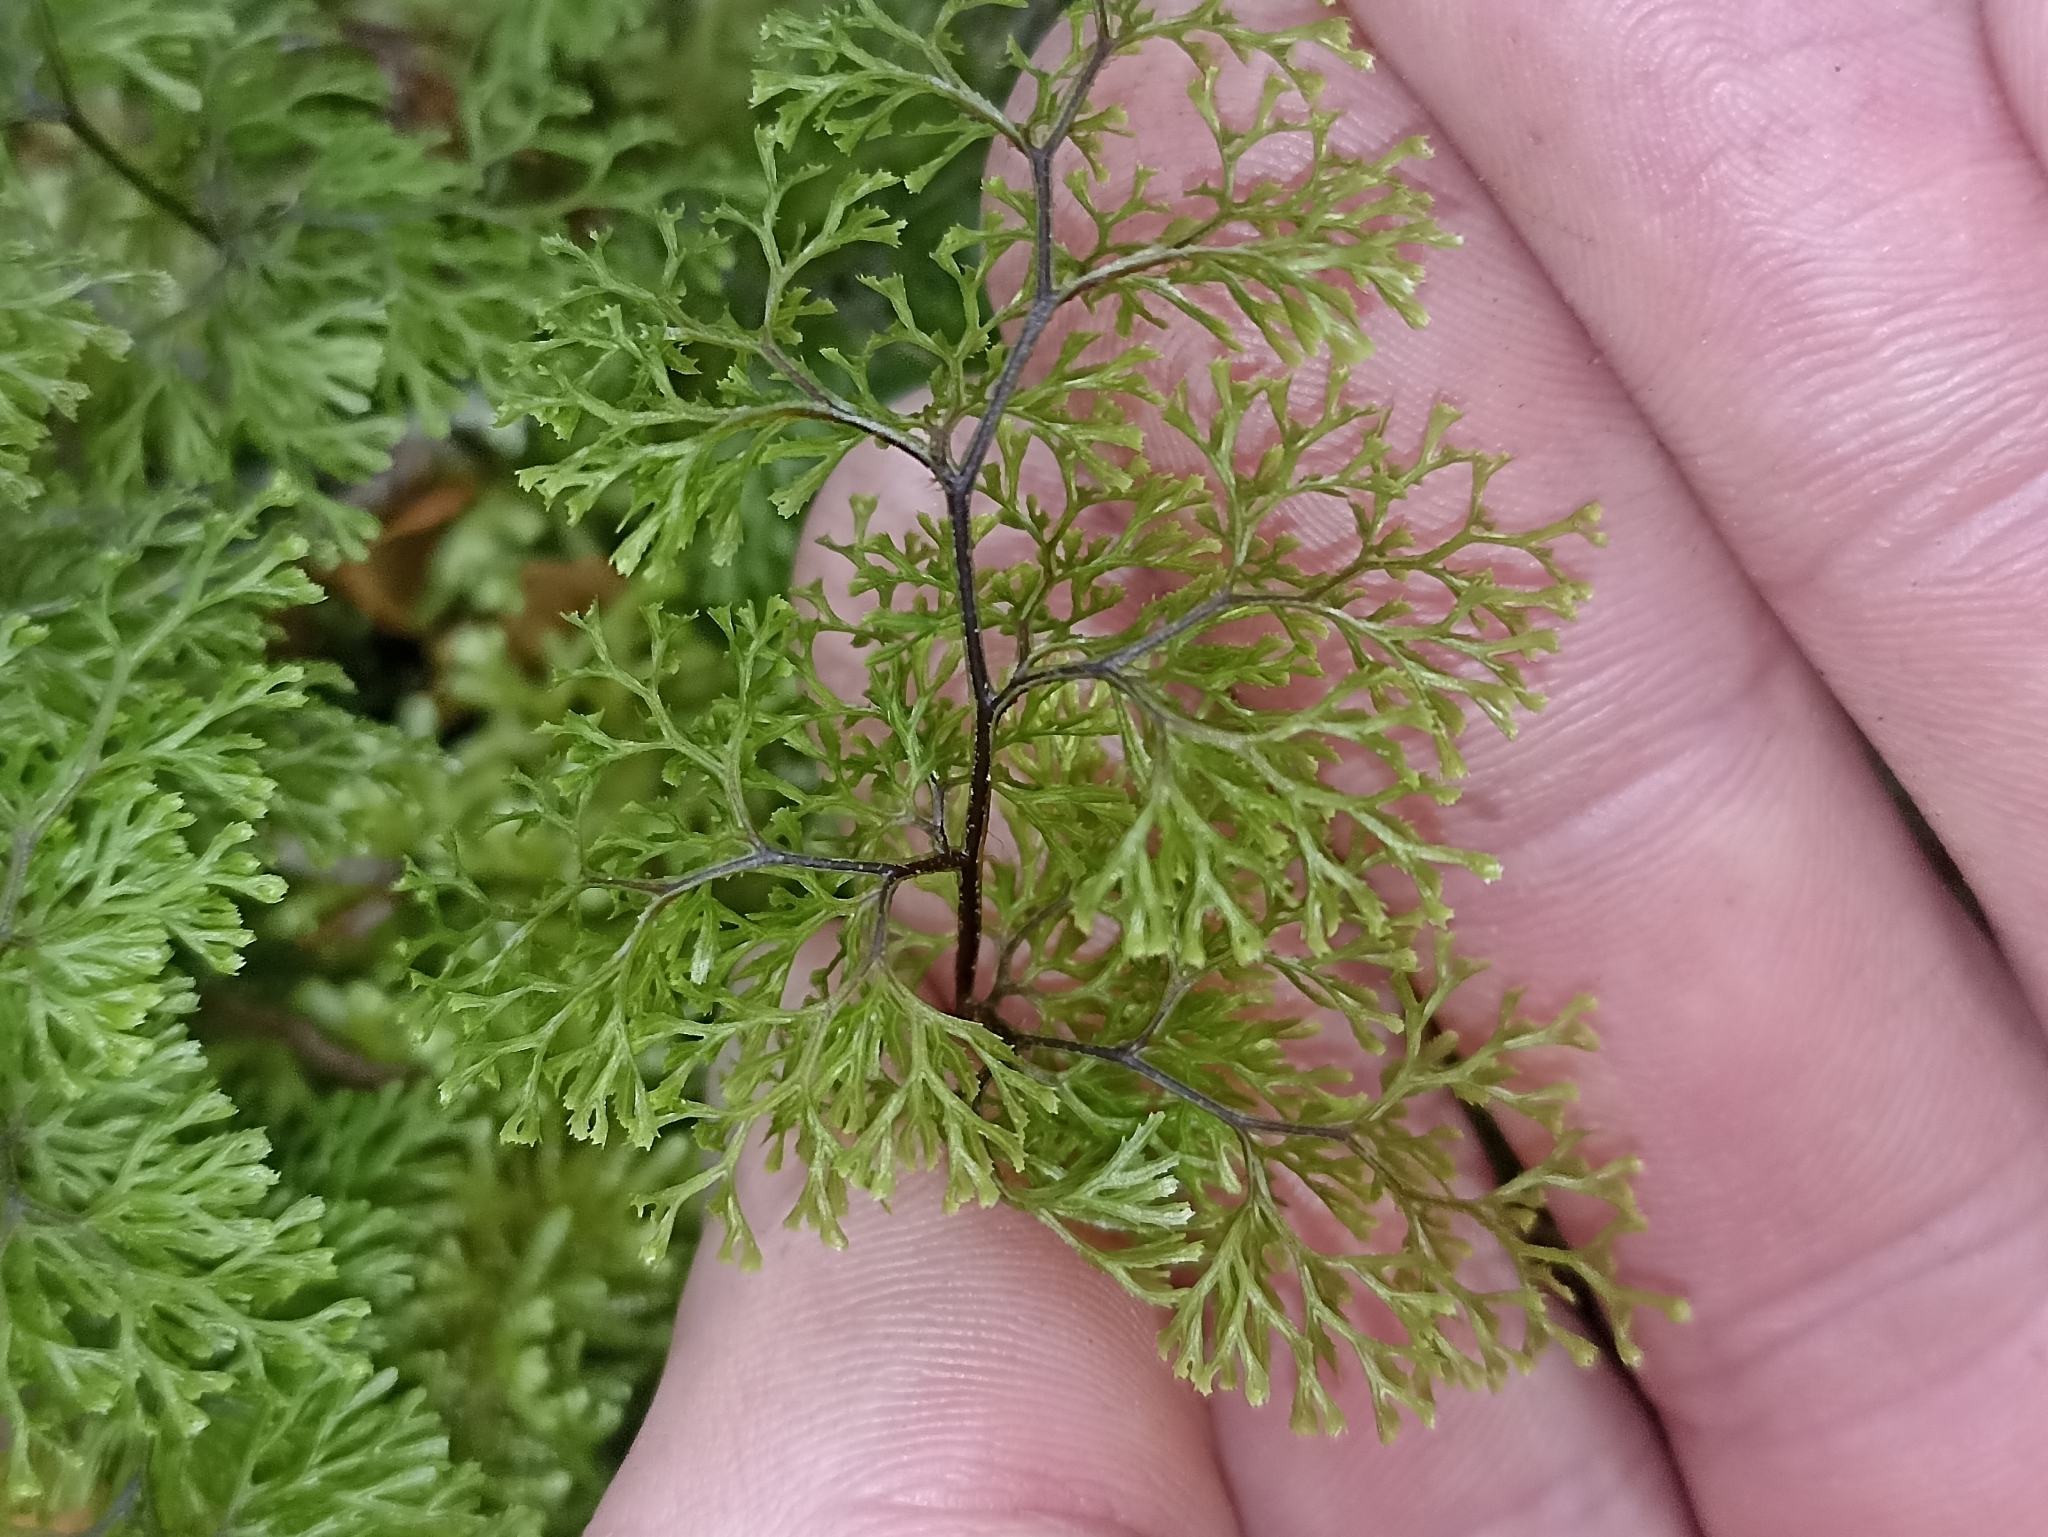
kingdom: Plantae
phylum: Tracheophyta
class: Polypodiopsida
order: Hymenophyllales
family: Hymenophyllaceae
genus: Hymenophyllum
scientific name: Hymenophyllum multifidum
